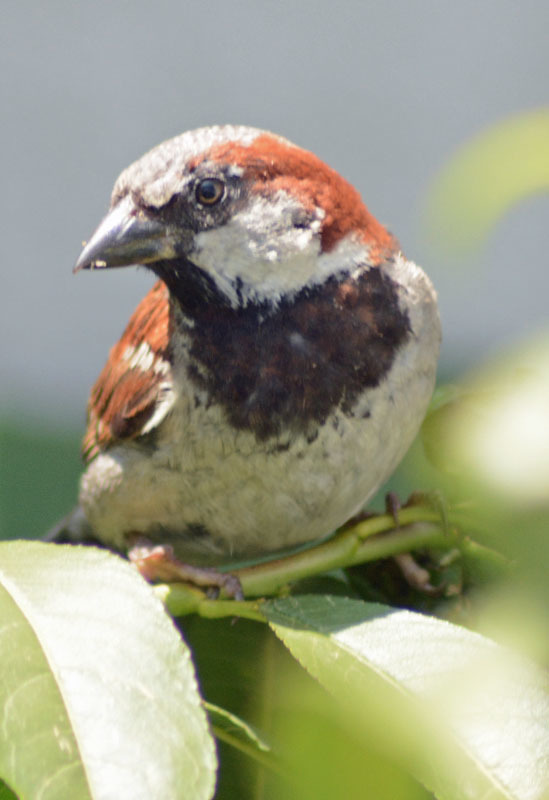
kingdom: Animalia
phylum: Chordata
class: Aves
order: Passeriformes
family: Passeridae
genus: Passer
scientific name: Passer domesticus
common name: House sparrow
